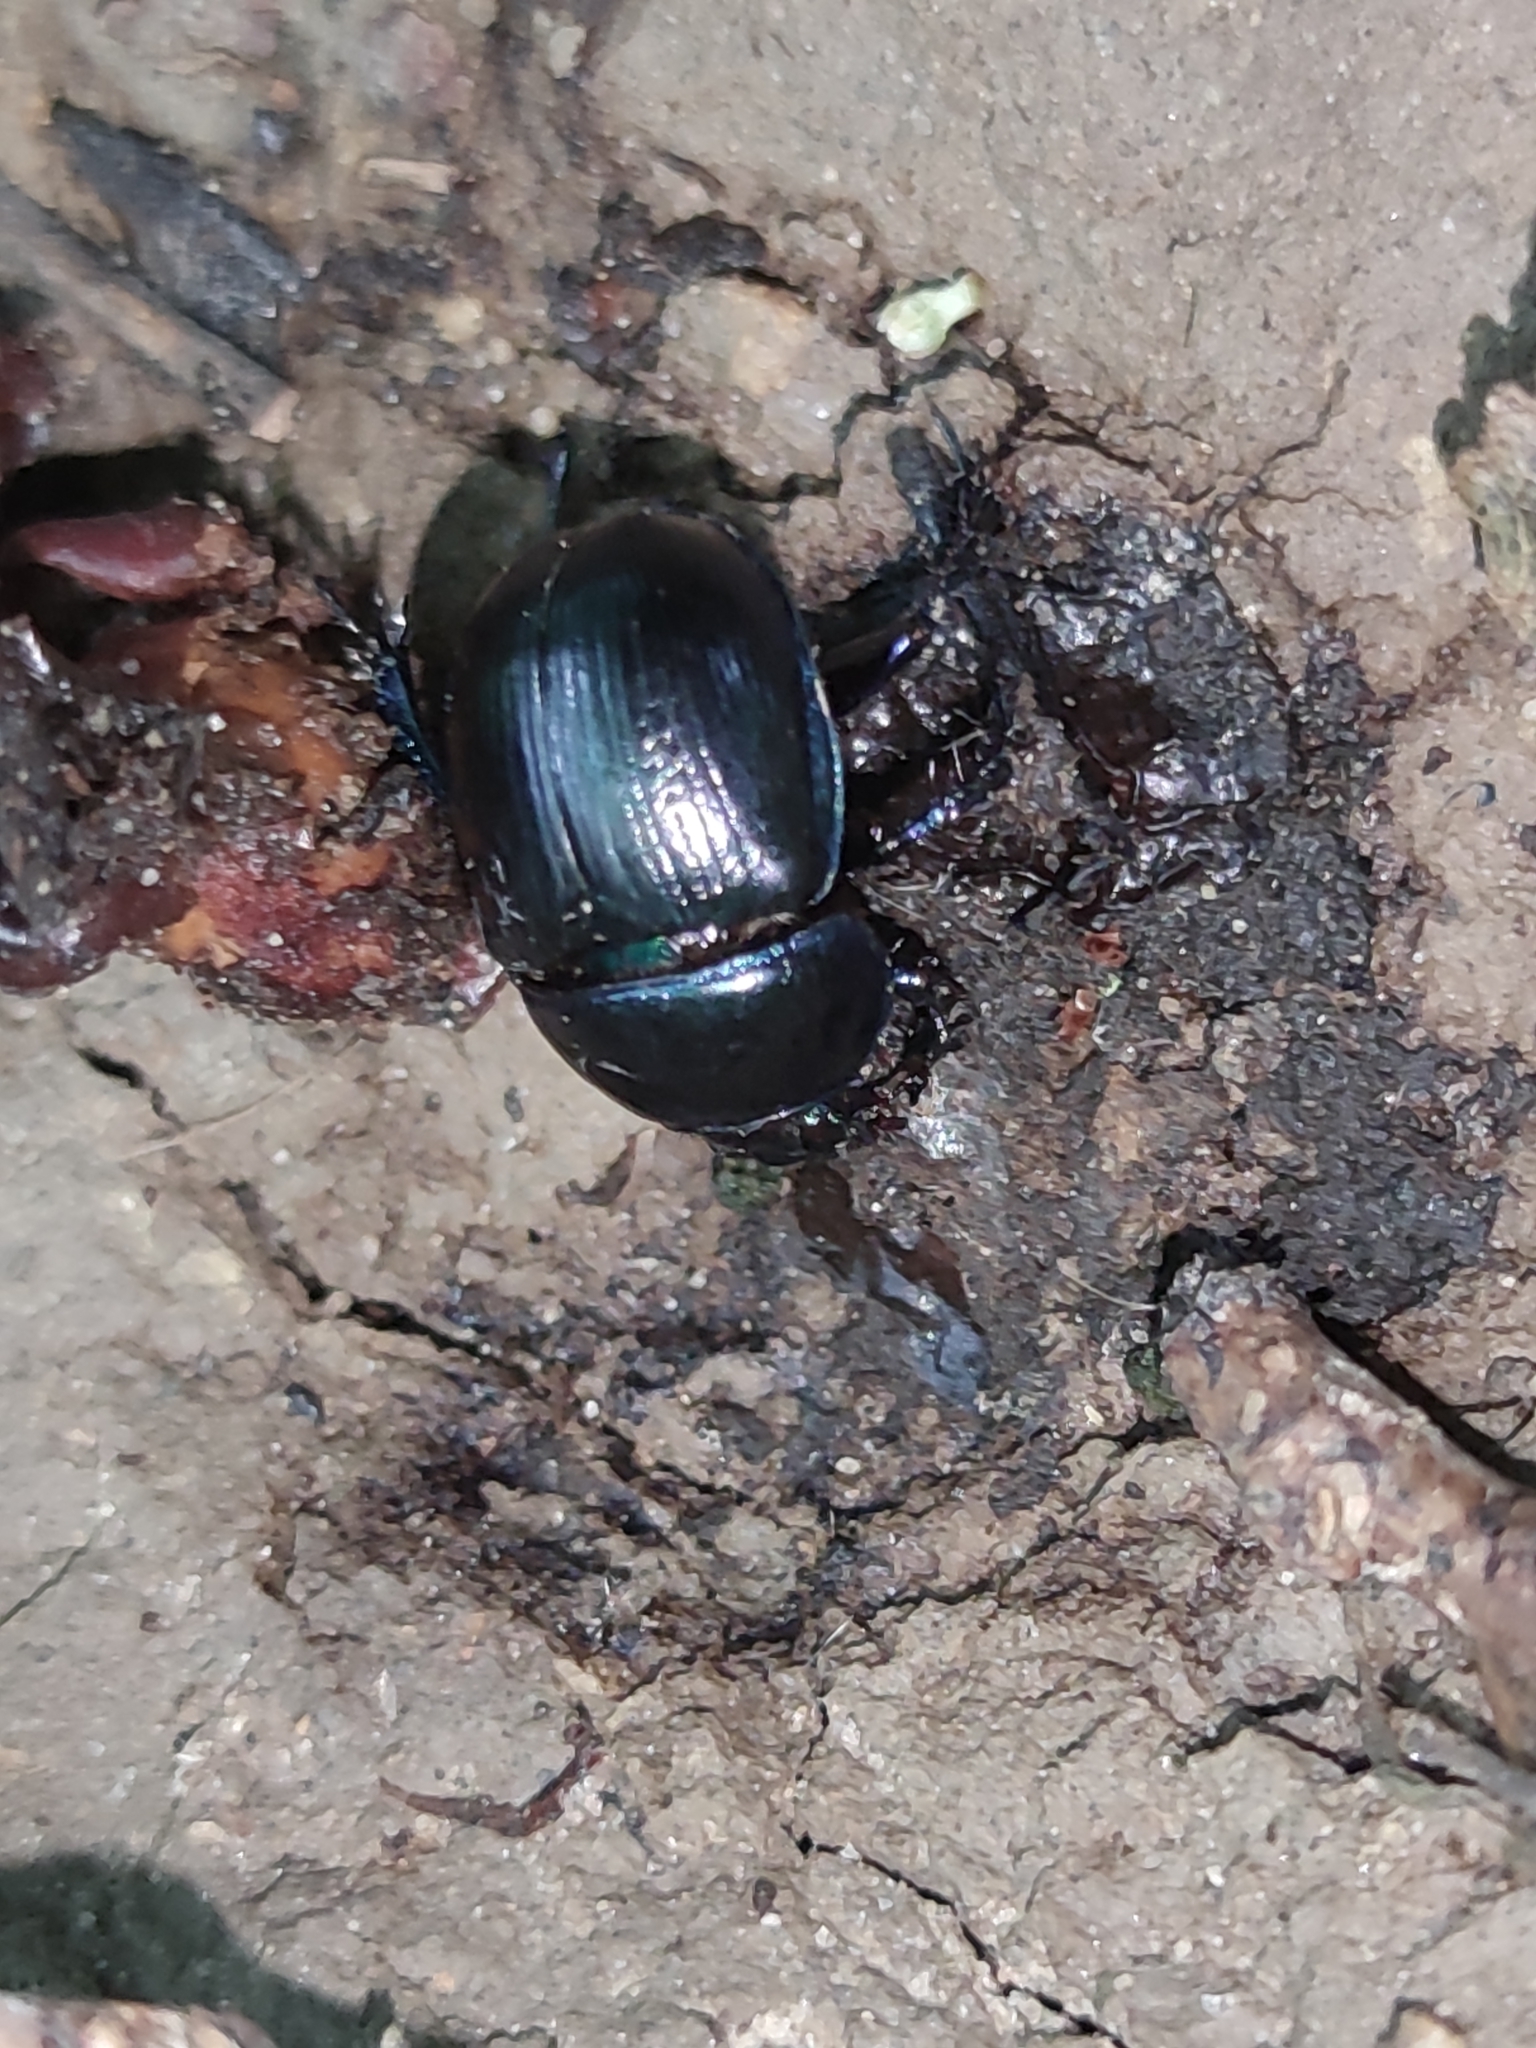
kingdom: Animalia
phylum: Arthropoda
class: Insecta
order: Coleoptera
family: Geotrupidae
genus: Anoplotrupes
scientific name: Anoplotrupes stercorosus
